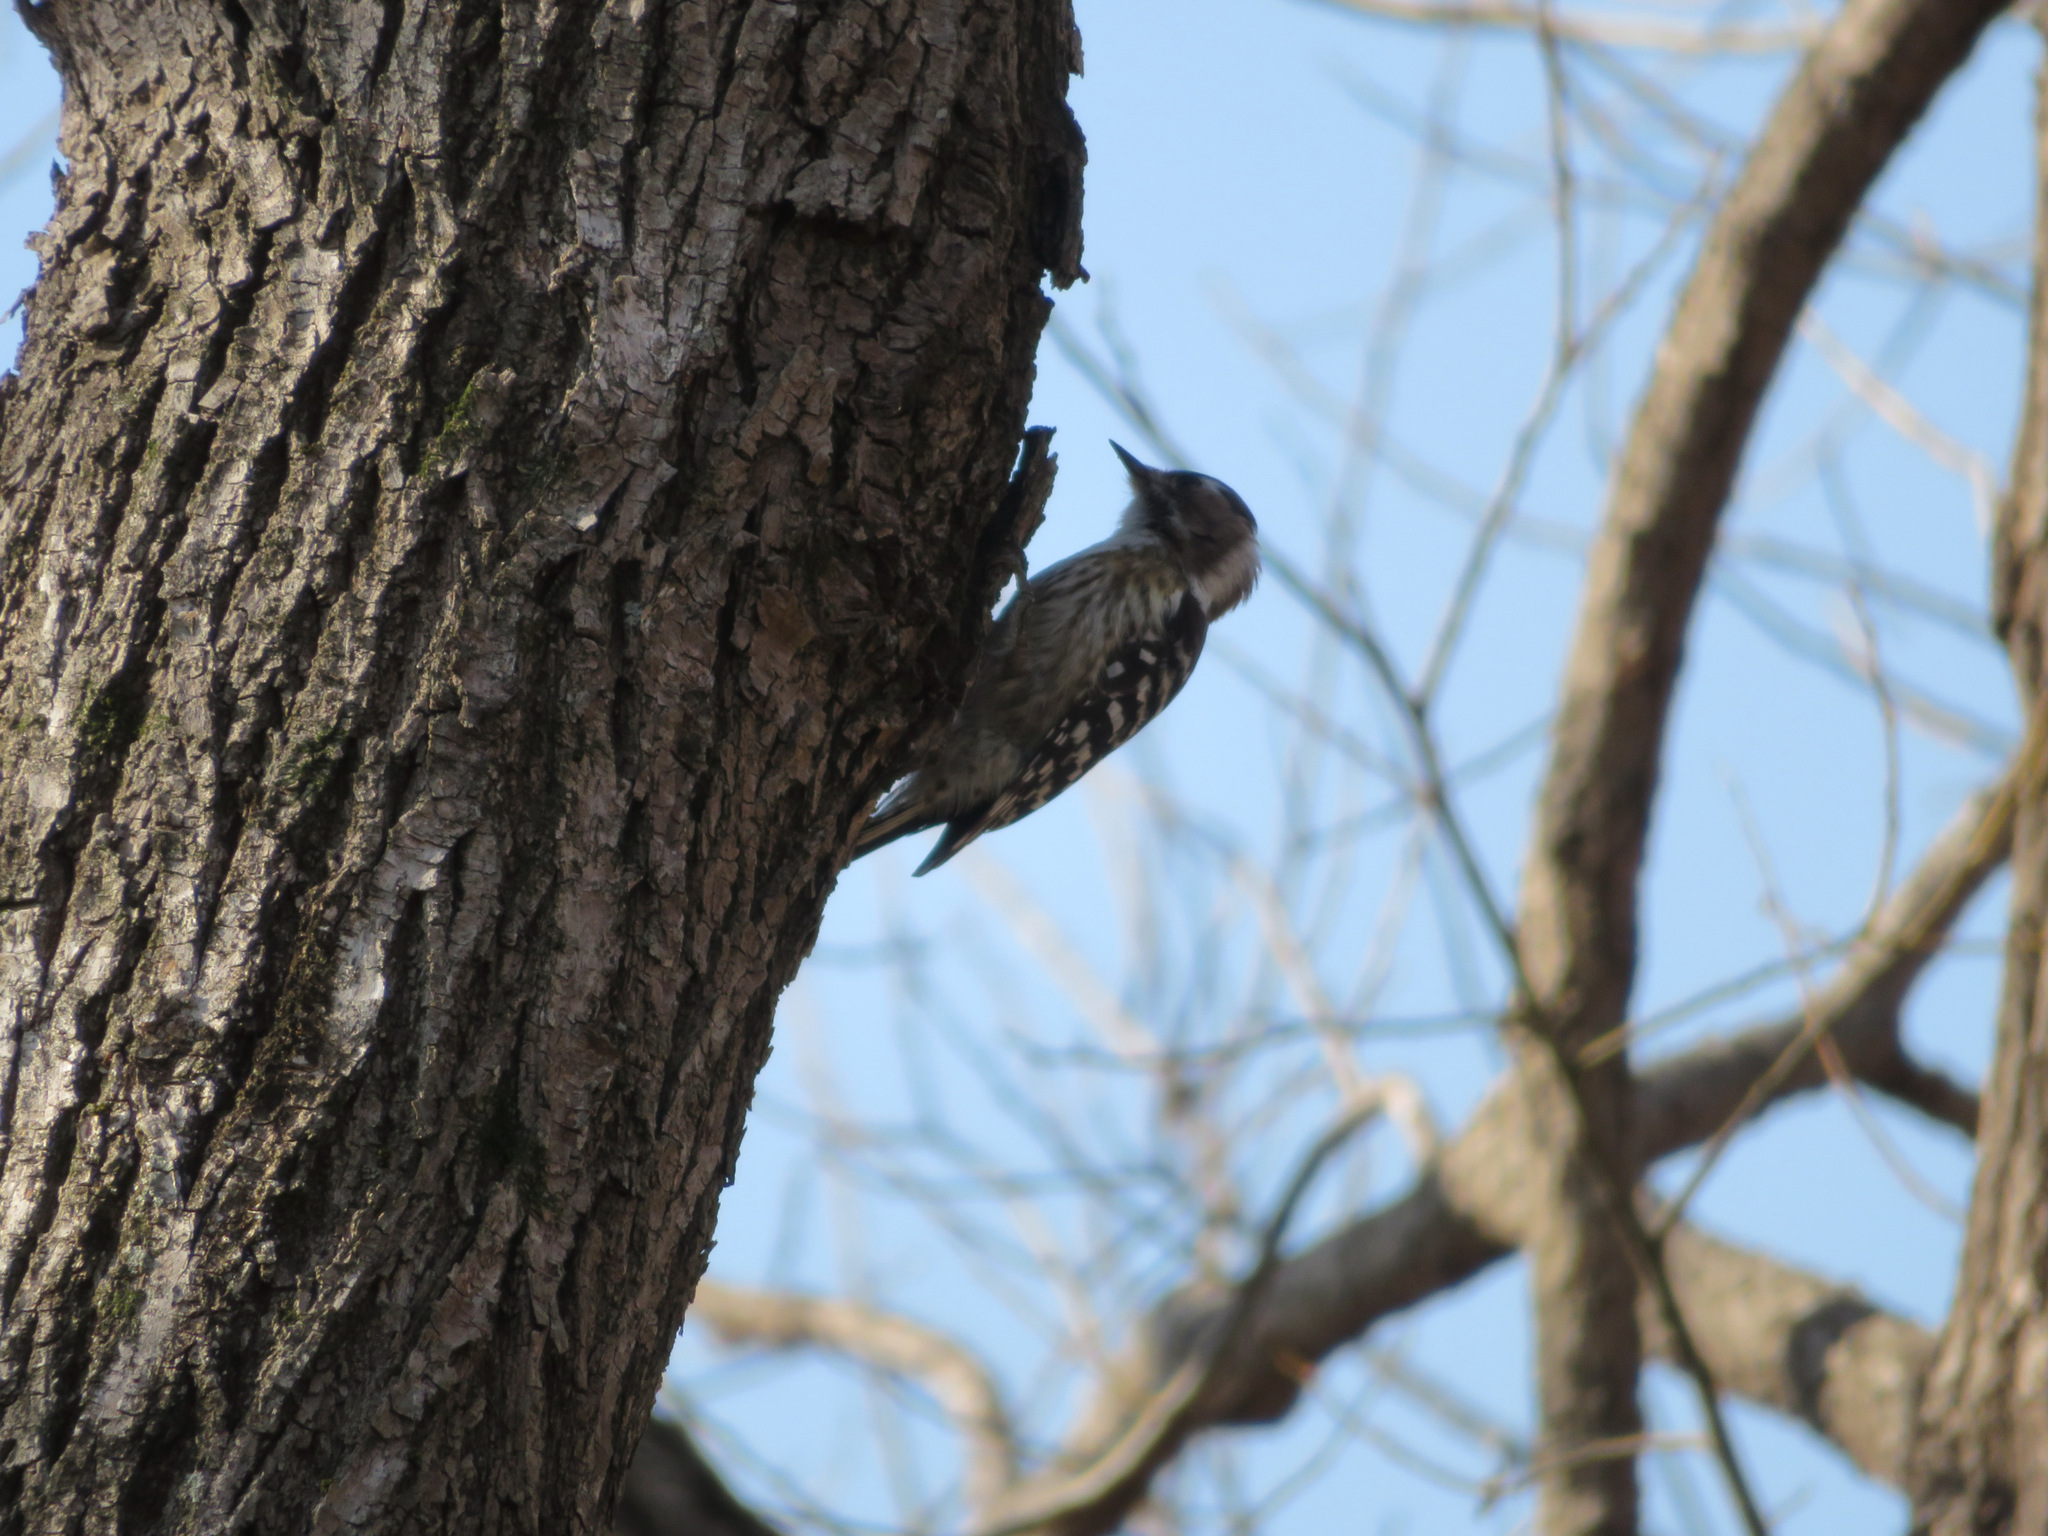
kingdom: Animalia
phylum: Chordata
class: Aves
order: Piciformes
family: Picidae
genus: Yungipicus
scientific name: Yungipicus kizuki
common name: Japanese pygmy woodpecker
